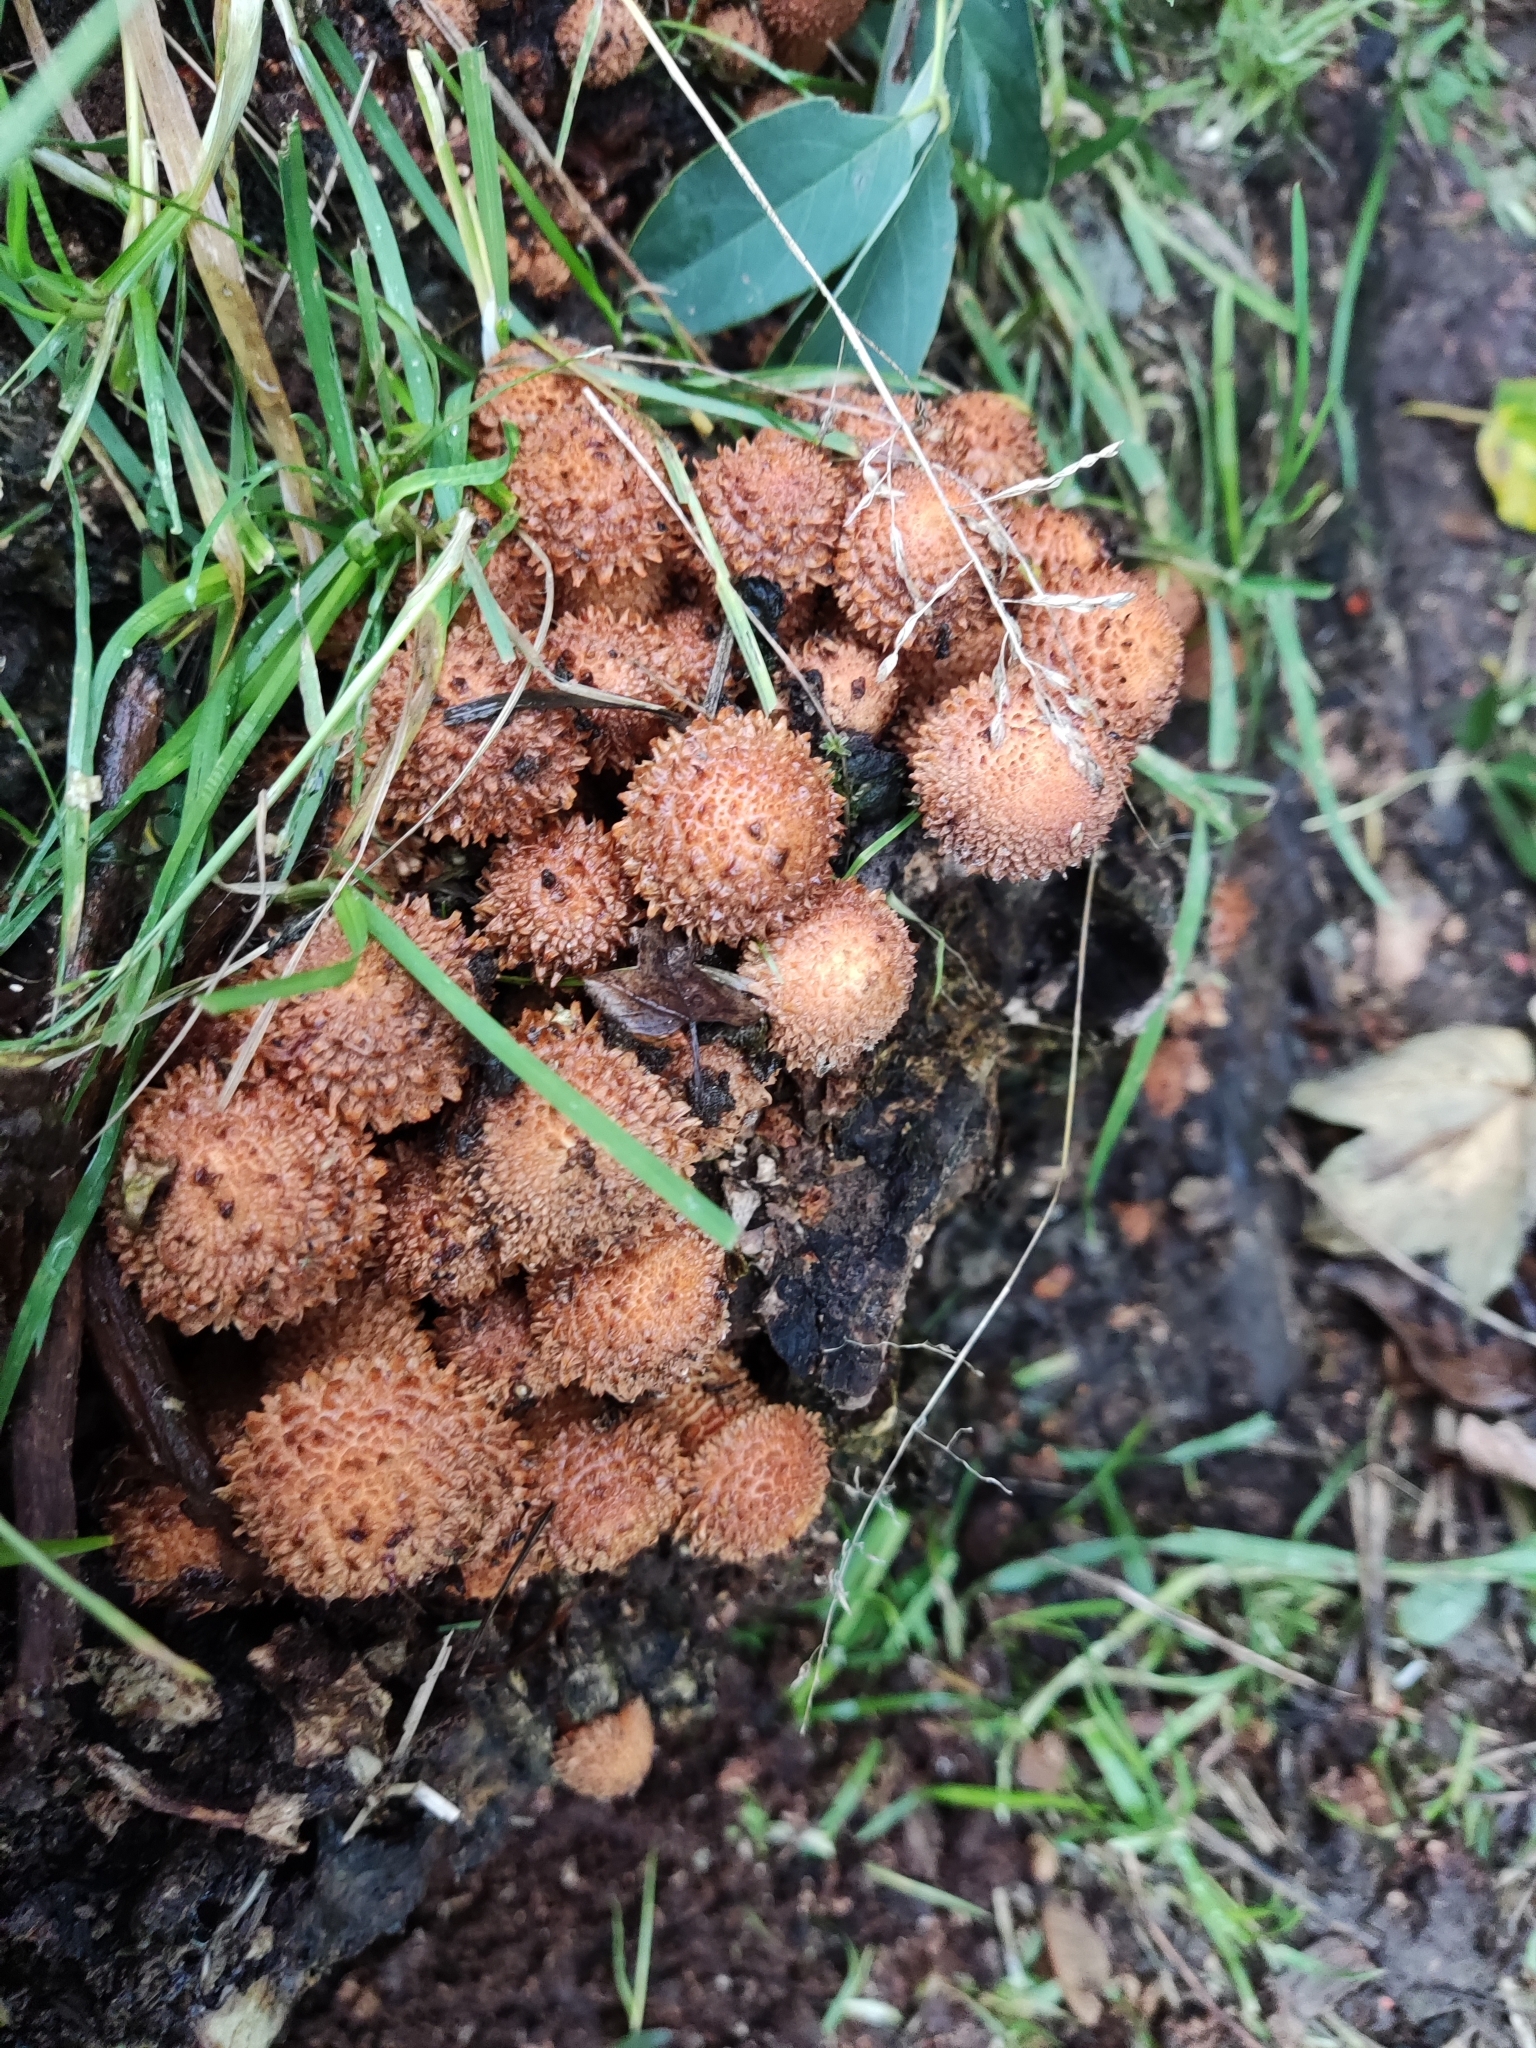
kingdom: Fungi
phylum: Basidiomycota
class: Agaricomycetes
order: Agaricales
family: Strophariaceae
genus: Pholiota
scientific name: Pholiota squarrosa
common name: Shaggy pholiota
